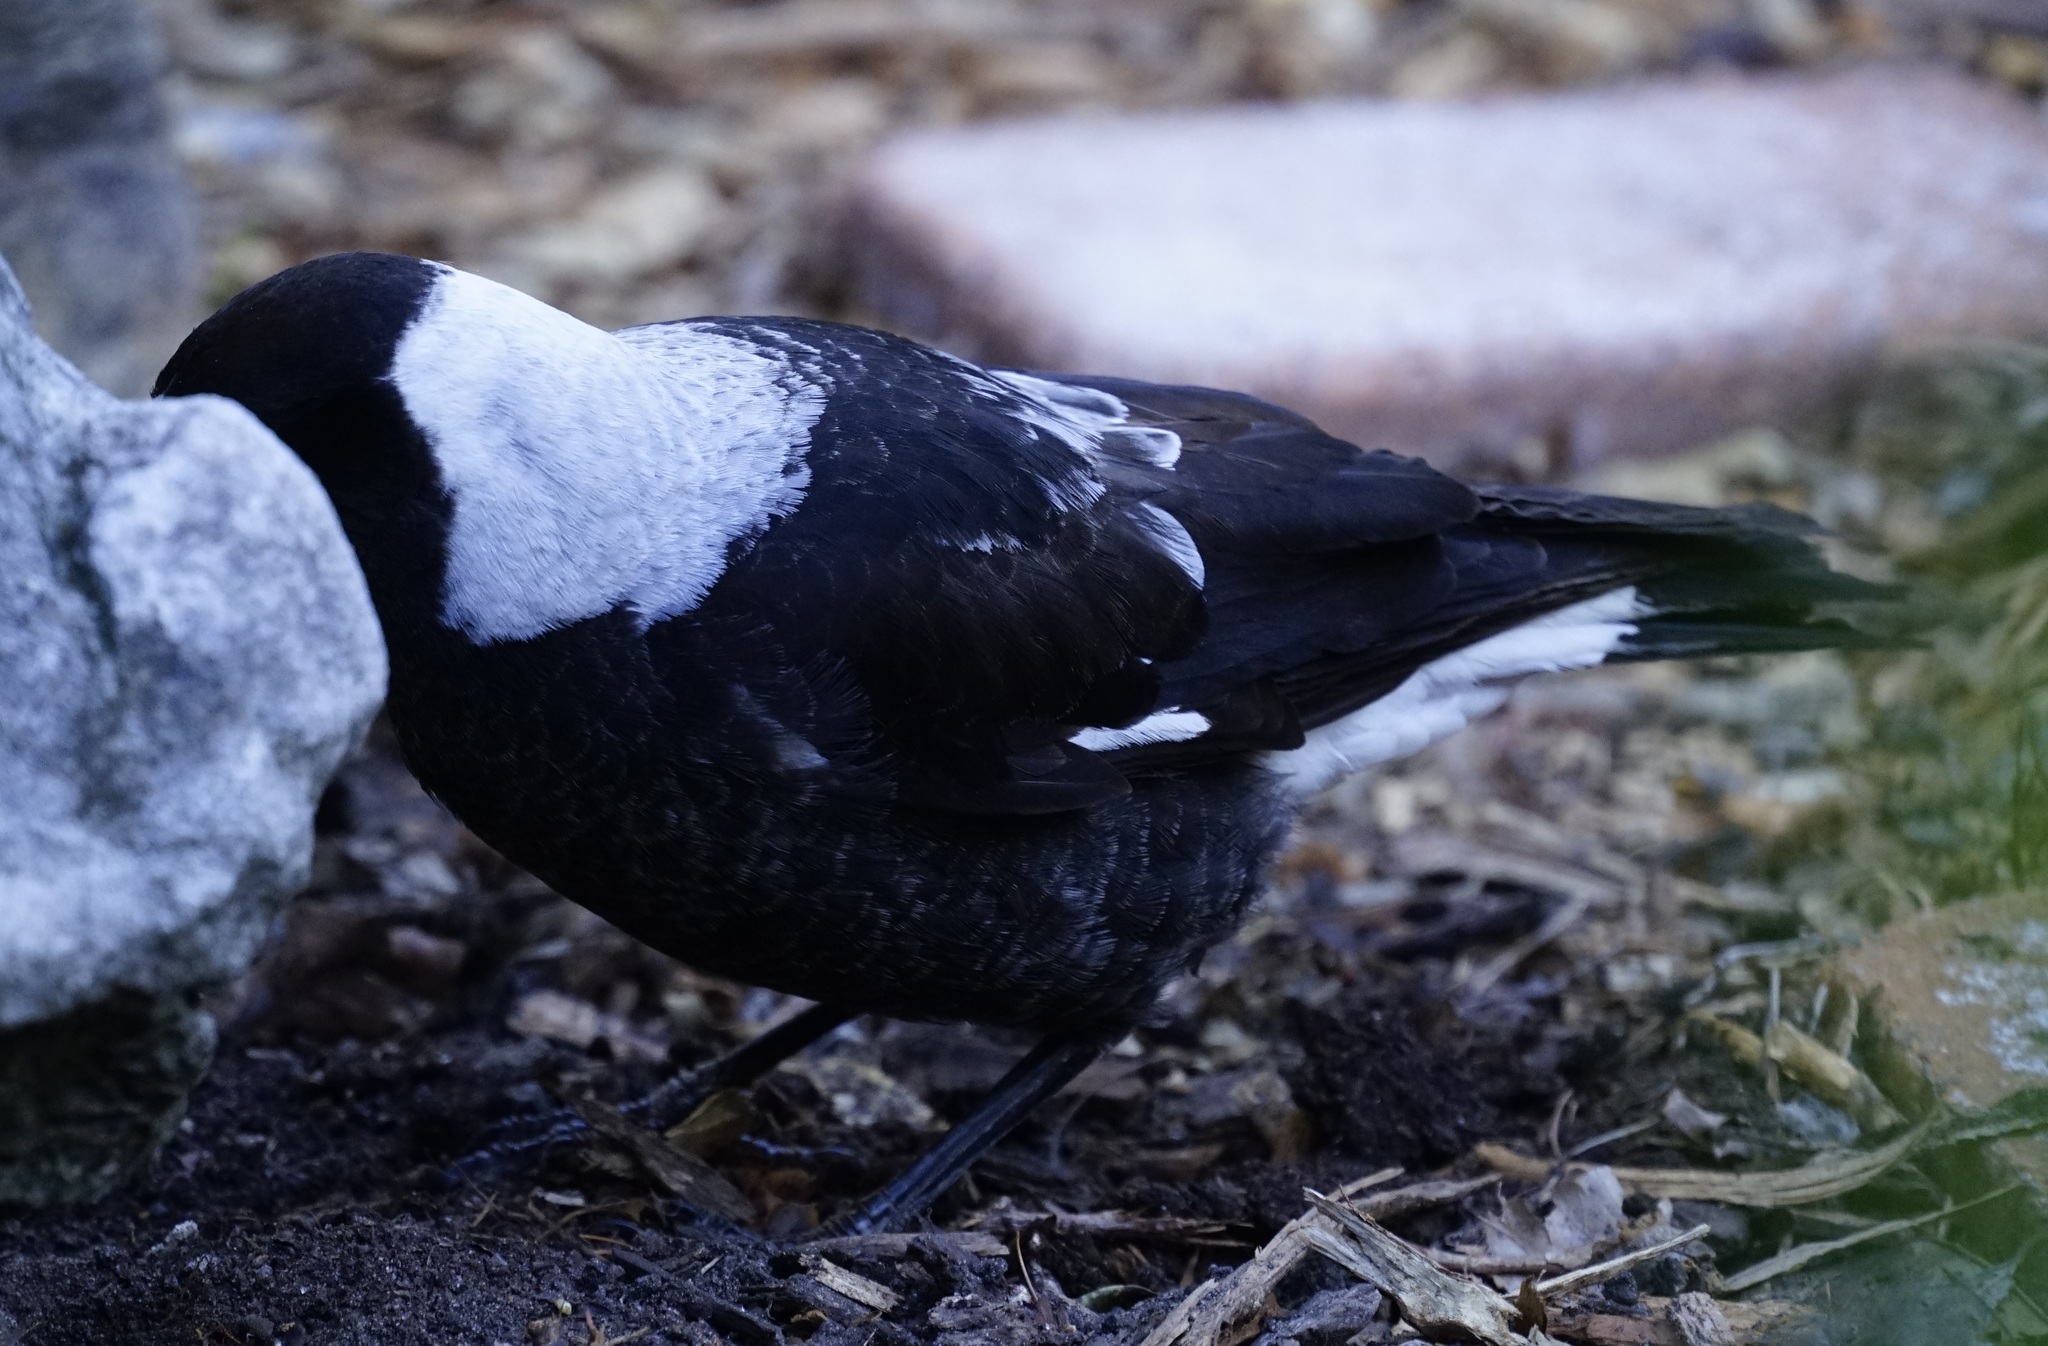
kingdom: Animalia
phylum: Chordata
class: Aves
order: Passeriformes
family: Cracticidae
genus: Gymnorhina
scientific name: Gymnorhina tibicen
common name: Australian magpie
